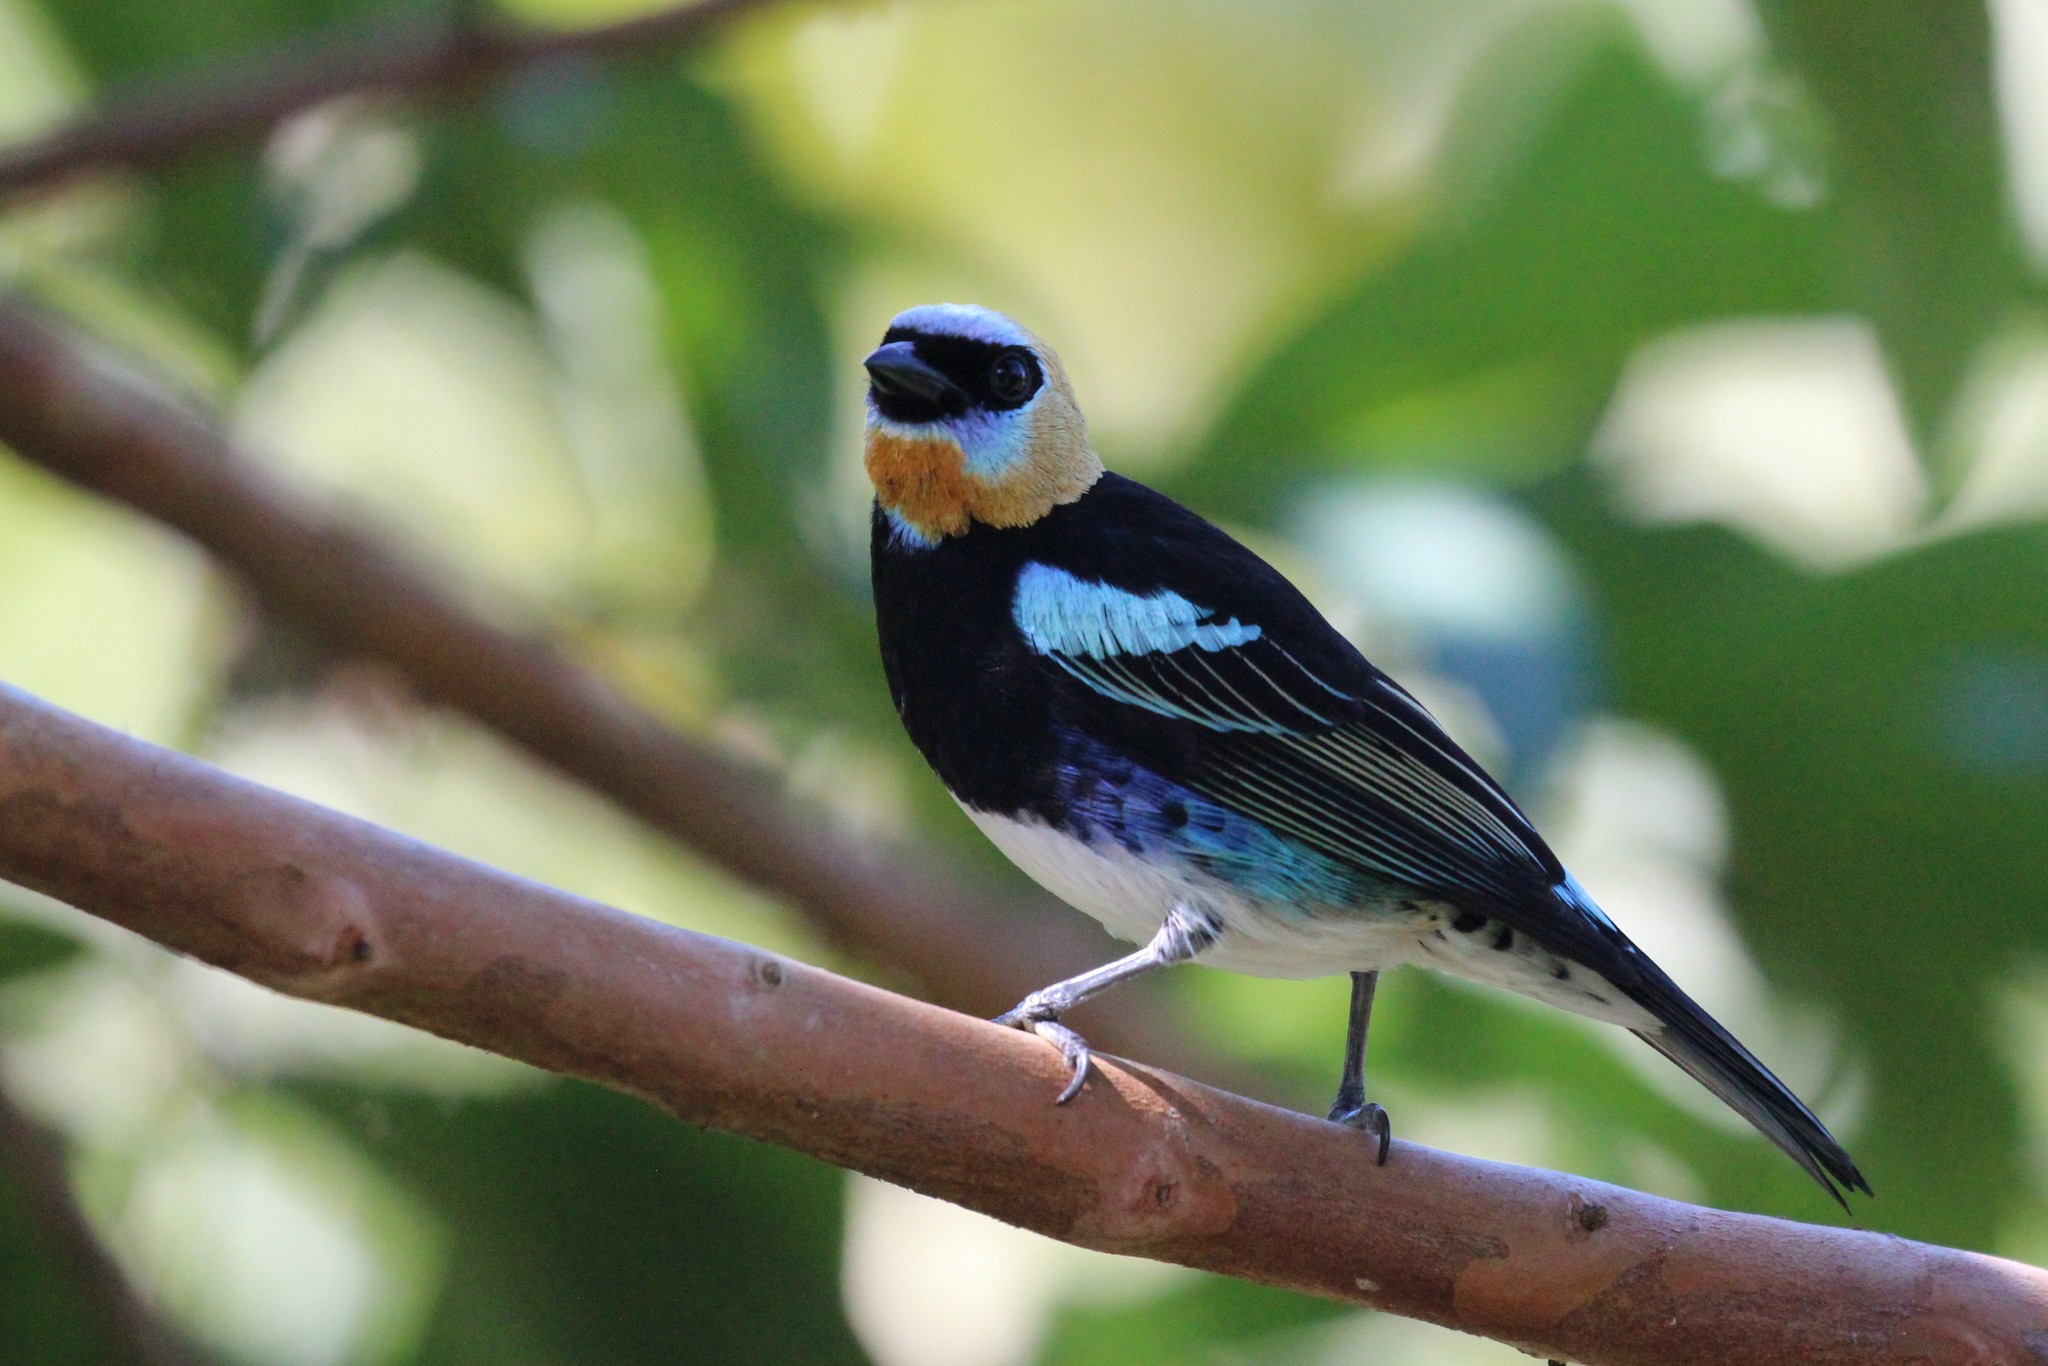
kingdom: Animalia
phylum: Chordata
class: Aves
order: Passeriformes
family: Thraupidae
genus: Stilpnia
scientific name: Stilpnia larvata
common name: Golden-hooded tanager
